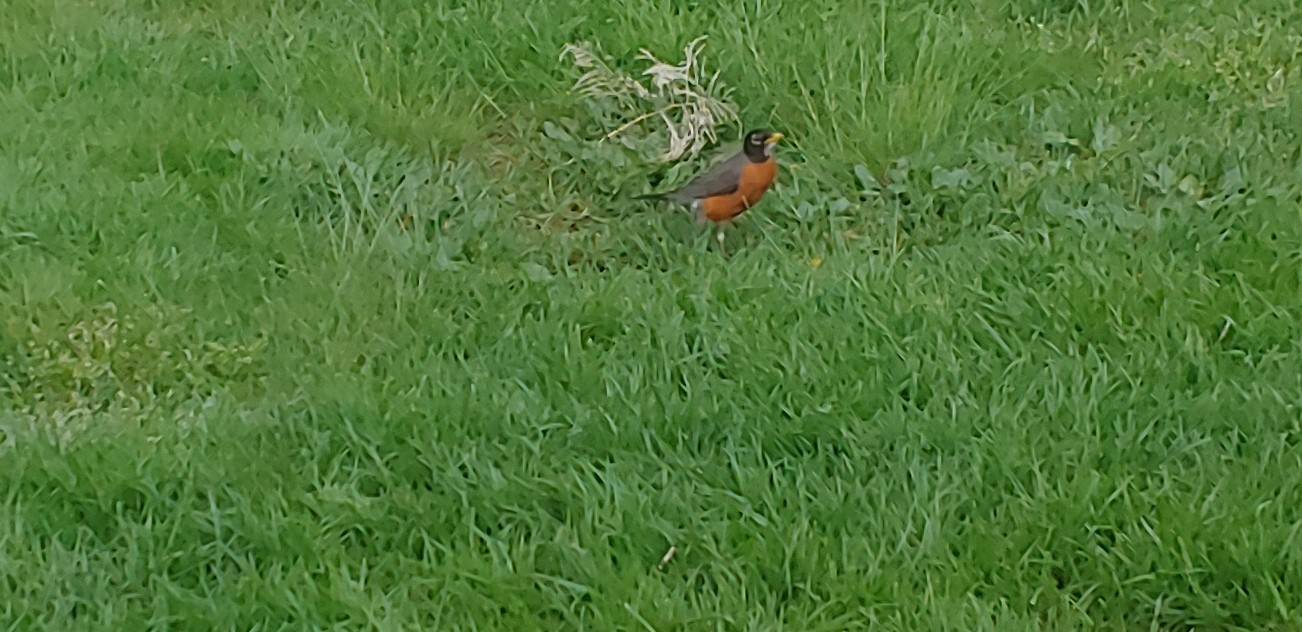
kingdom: Animalia
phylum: Chordata
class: Aves
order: Passeriformes
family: Turdidae
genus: Turdus
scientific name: Turdus migratorius
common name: American robin
